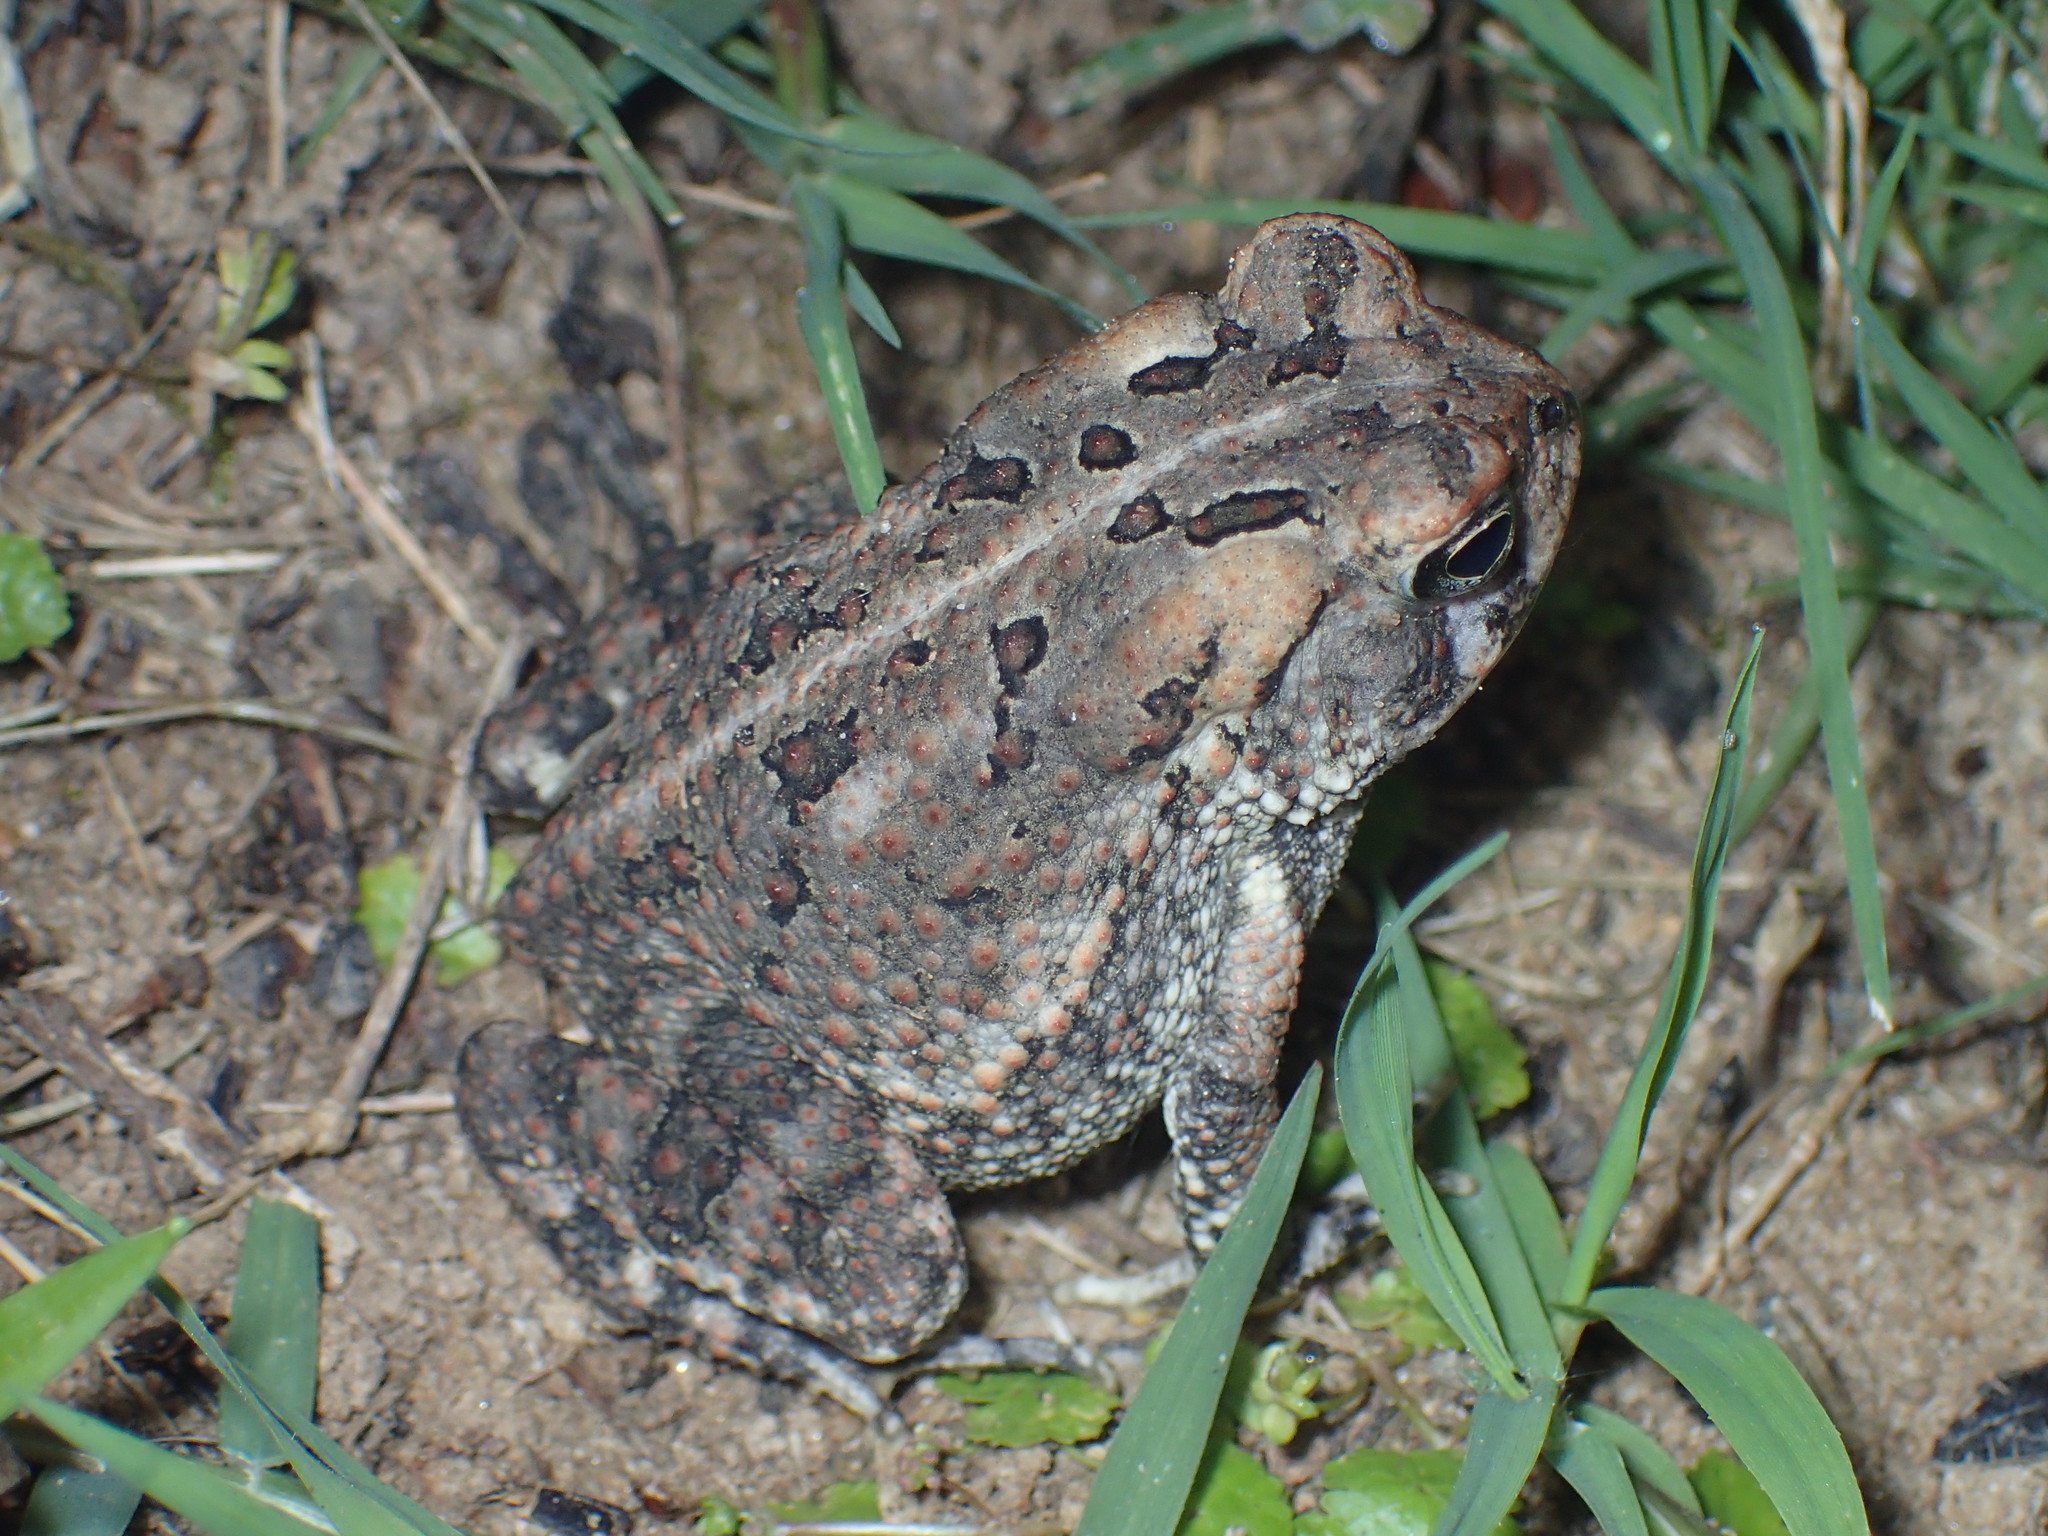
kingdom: Animalia
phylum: Chordata
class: Amphibia
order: Anura
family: Bufonidae
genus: Anaxyrus
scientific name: Anaxyrus fowleri
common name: Fowler's toad
